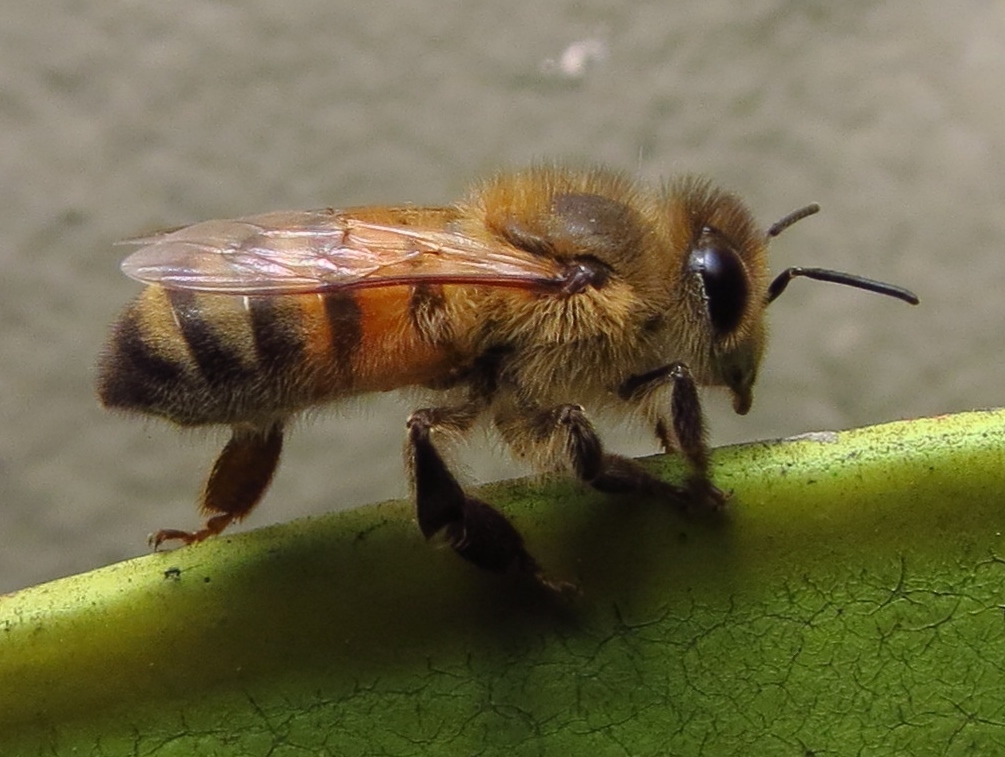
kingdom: Animalia
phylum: Arthropoda
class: Insecta
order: Hymenoptera
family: Apidae
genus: Apis
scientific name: Apis mellifera
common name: Honey bee
